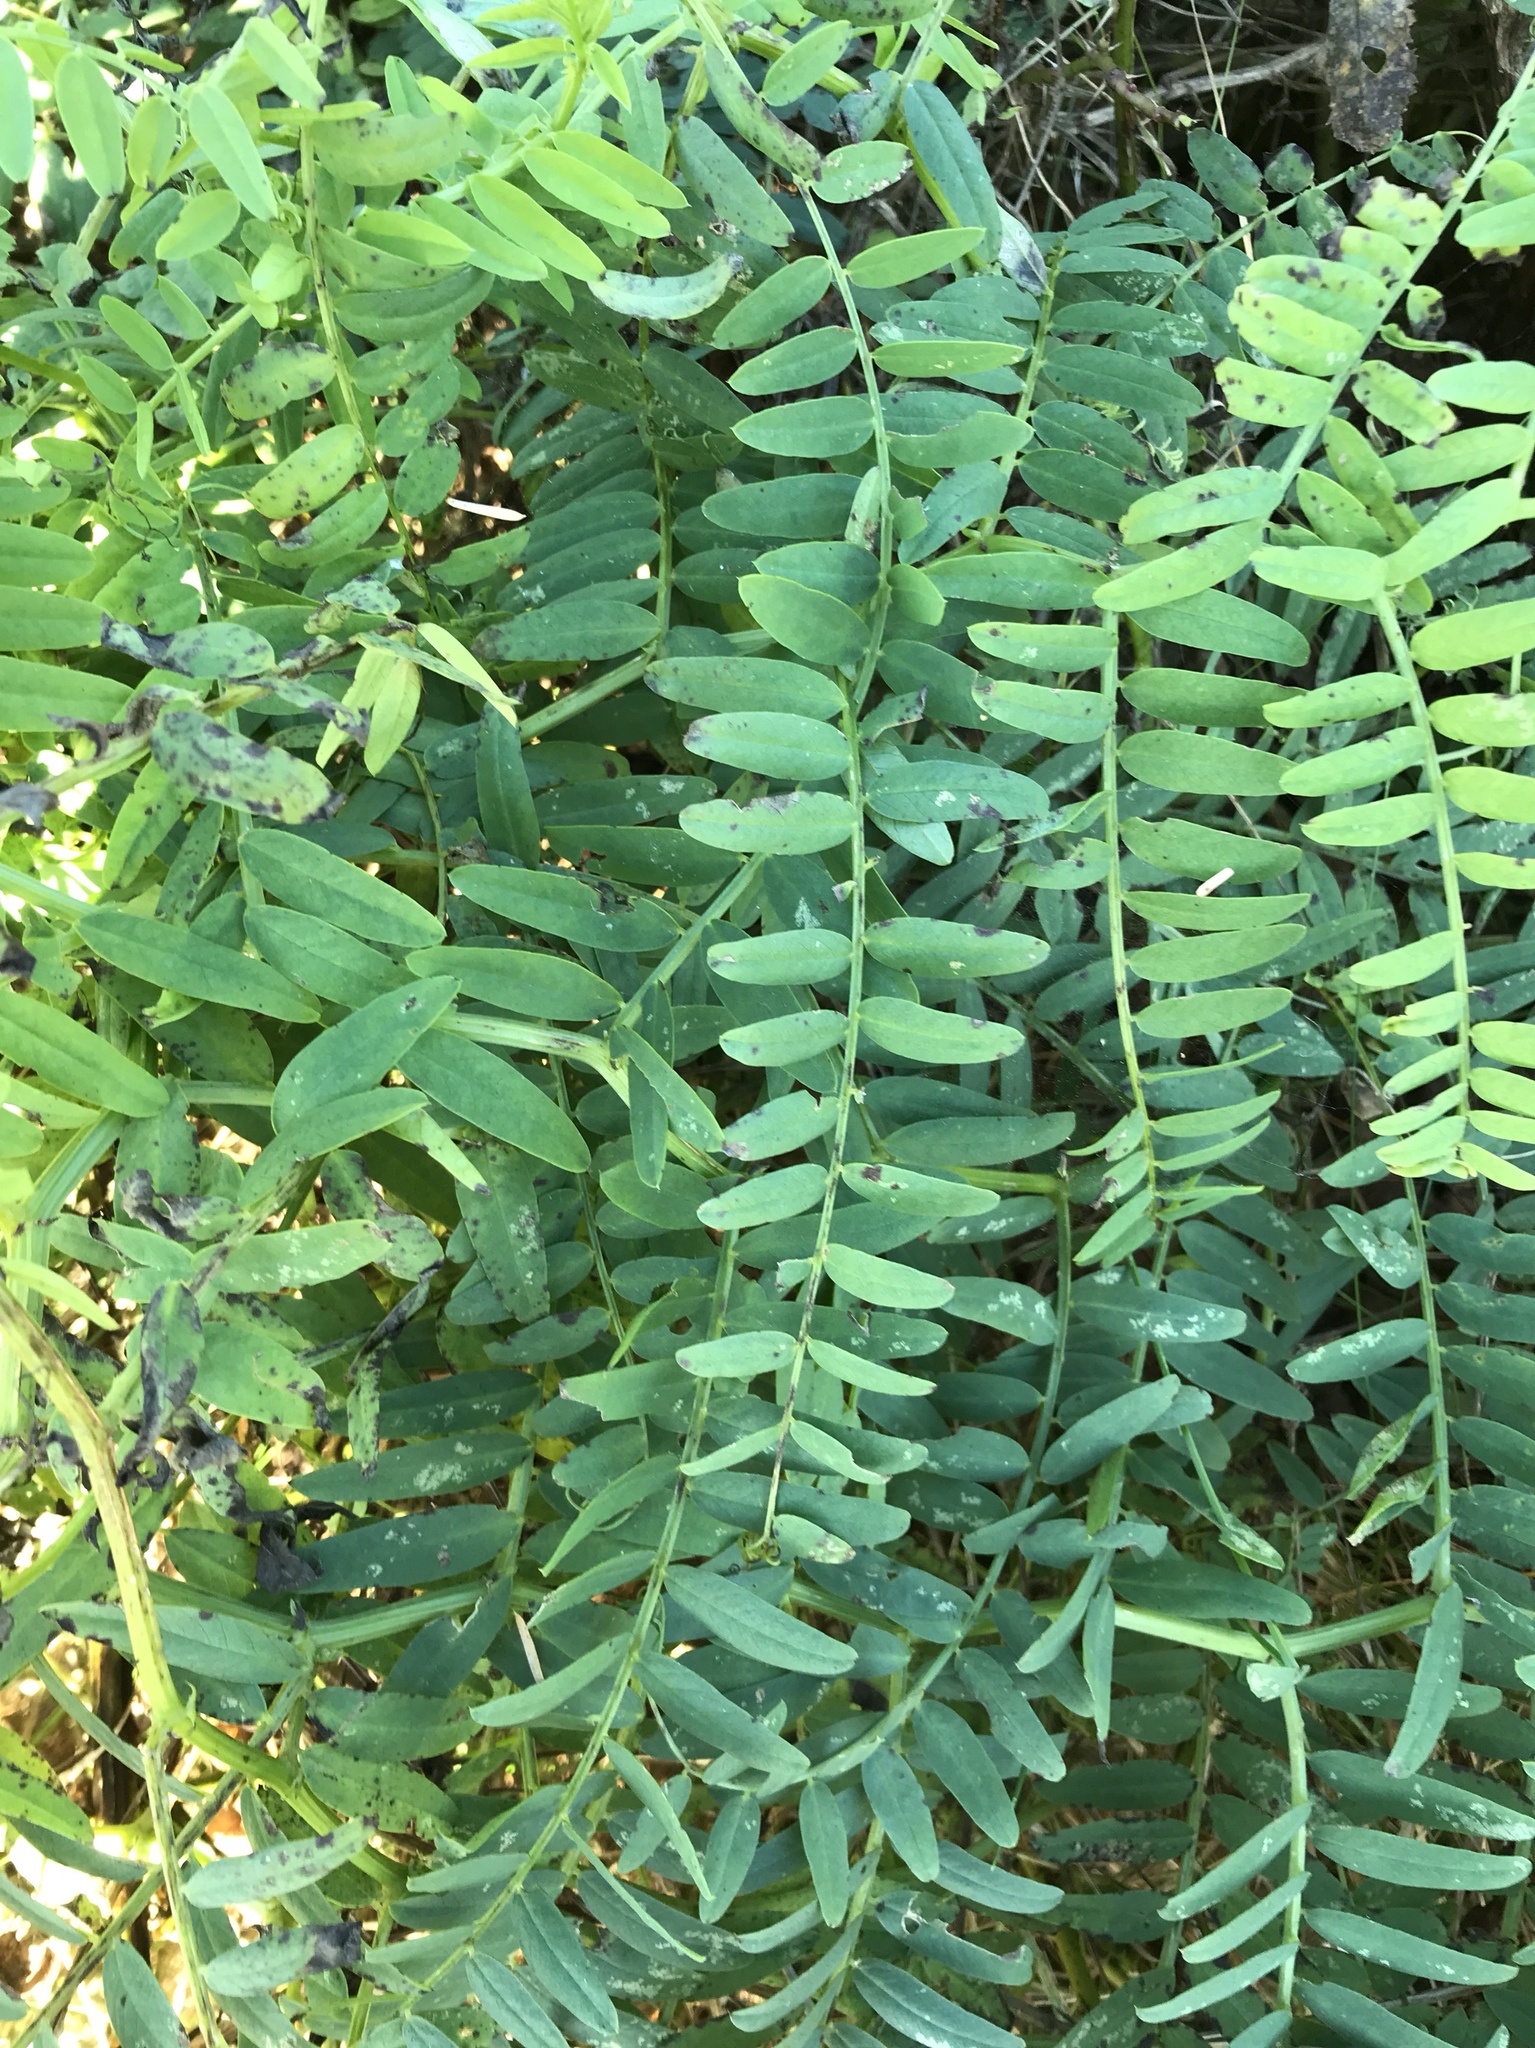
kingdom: Plantae
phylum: Tracheophyta
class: Magnoliopsida
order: Fabales
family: Fabaceae
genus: Vicia
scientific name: Vicia
